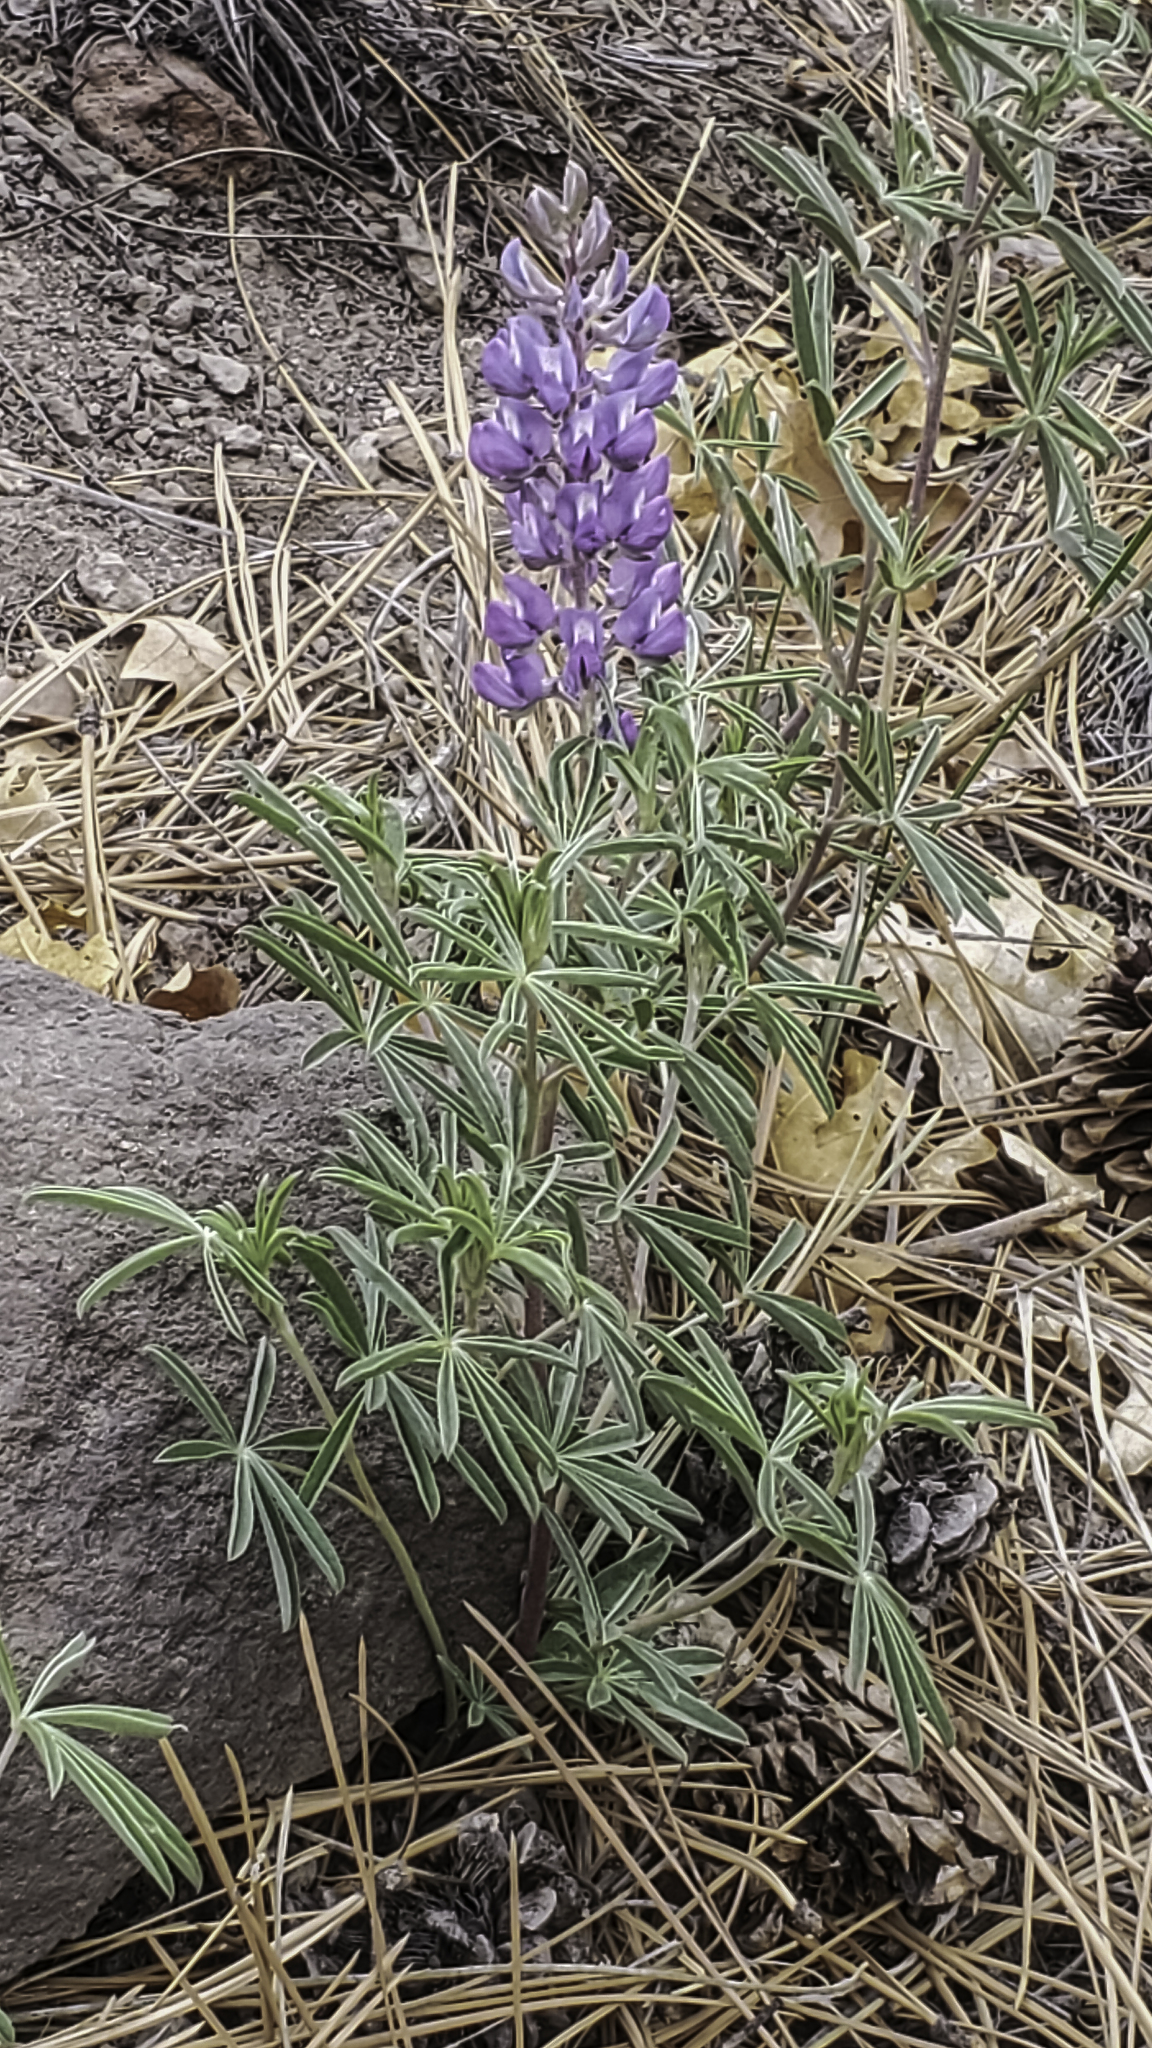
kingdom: Plantae
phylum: Tracheophyta
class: Magnoliopsida
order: Fabales
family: Fabaceae
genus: Lupinus
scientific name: Lupinus caudatus
